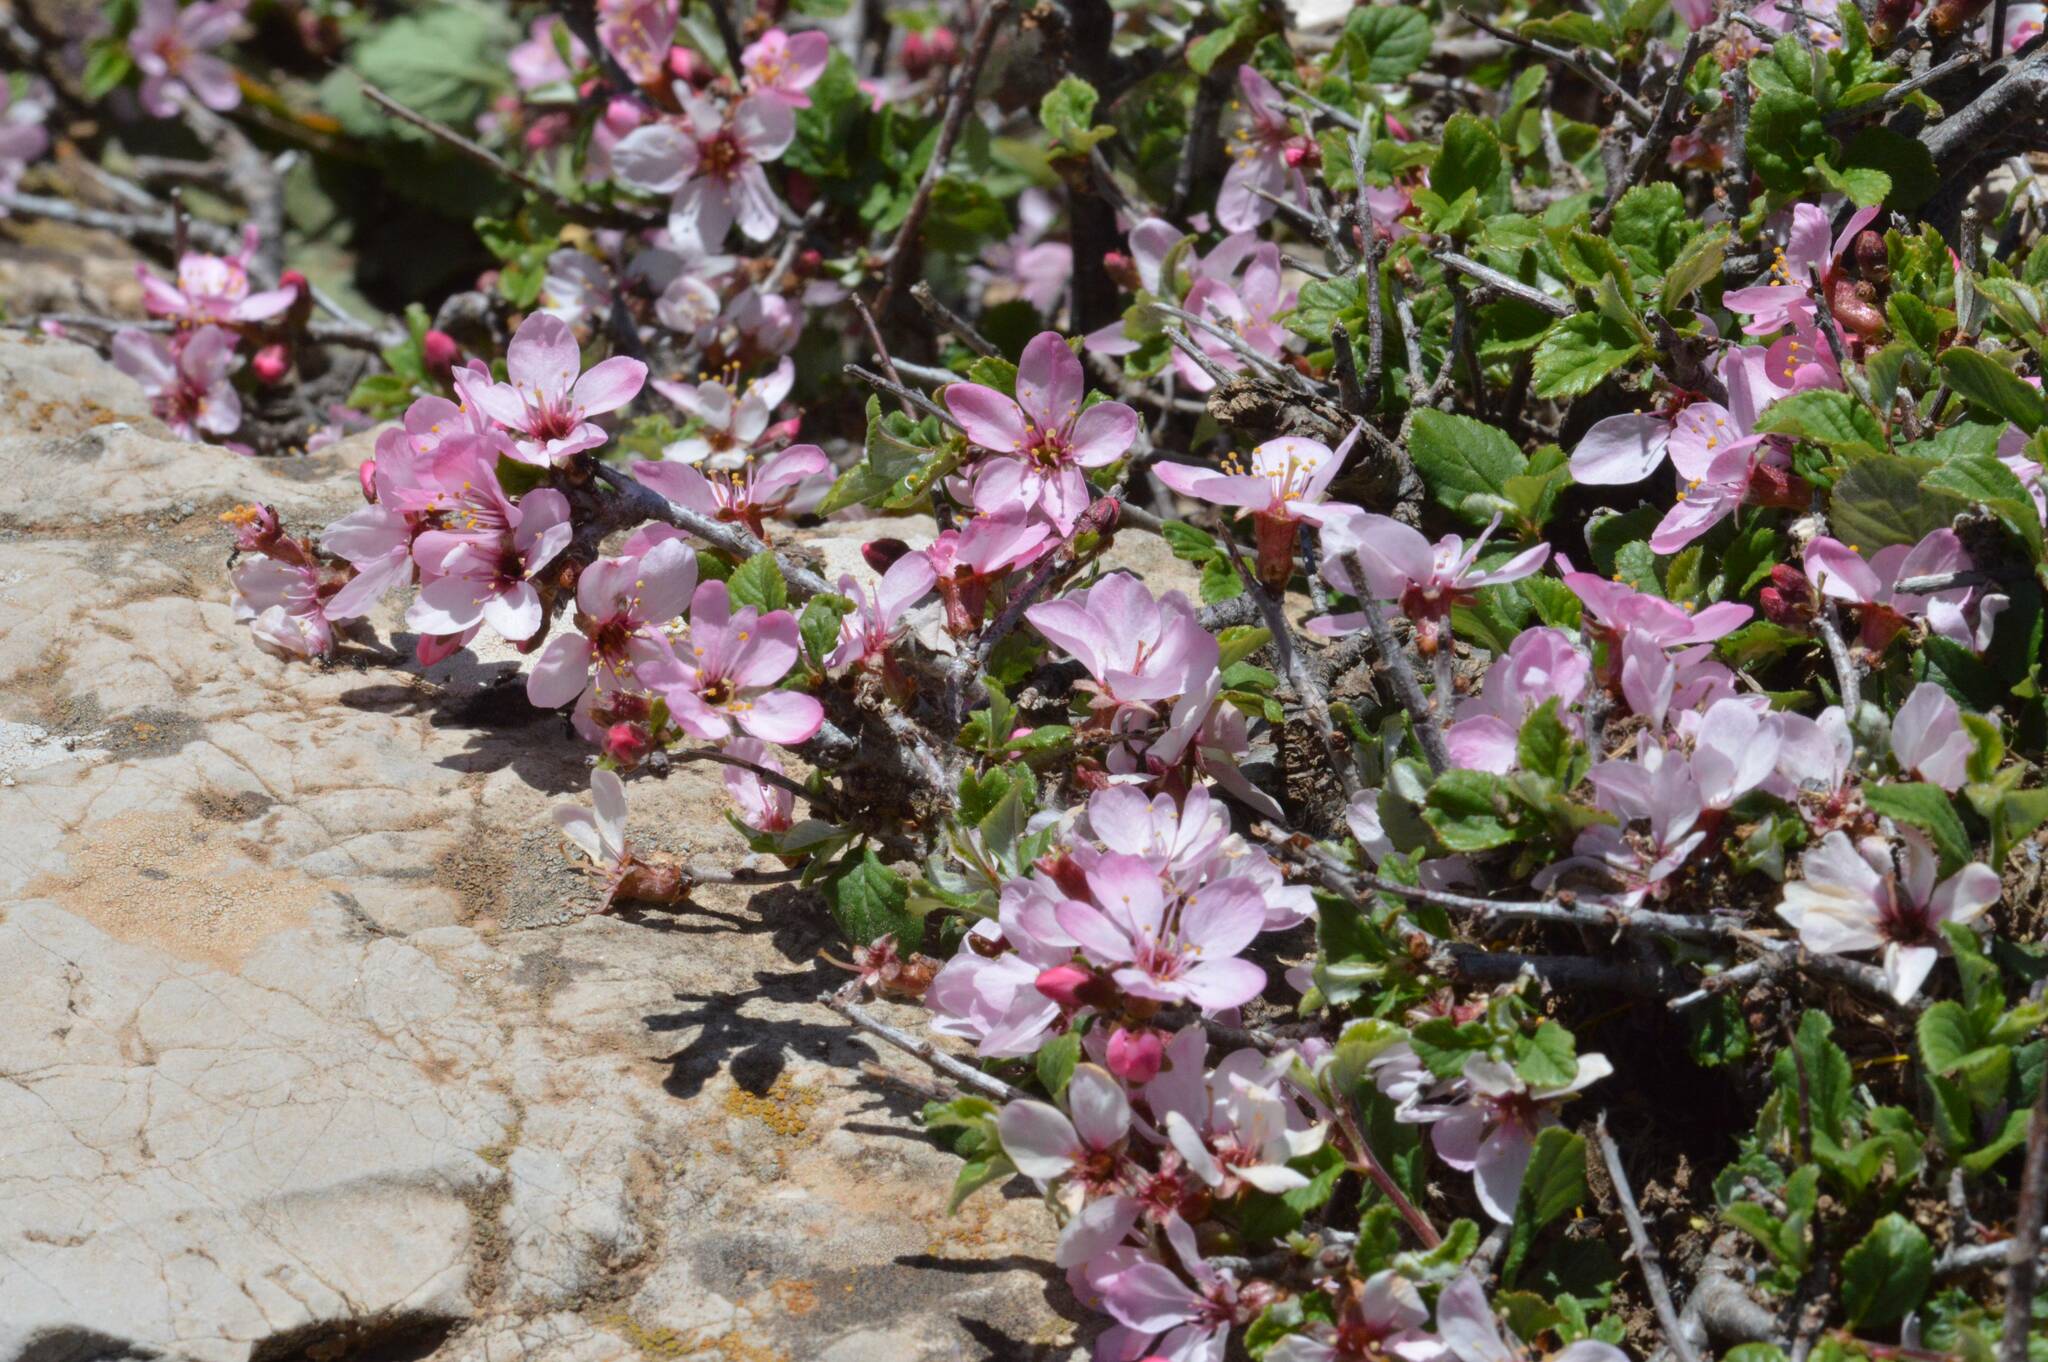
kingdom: Plantae
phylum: Tracheophyta
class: Magnoliopsida
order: Rosales
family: Rosaceae
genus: Prunus
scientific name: Prunus prostrata
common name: Mountain cherry
